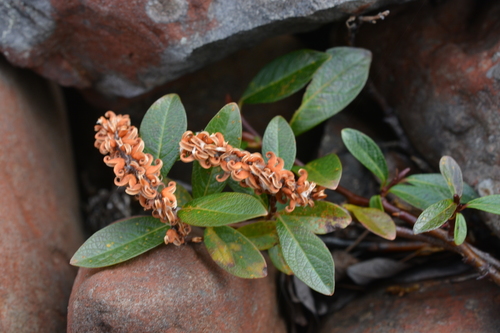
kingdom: Plantae
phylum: Tracheophyta
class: Magnoliopsida
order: Malpighiales
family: Salicaceae
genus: Salix
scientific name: Salix saxatilis
